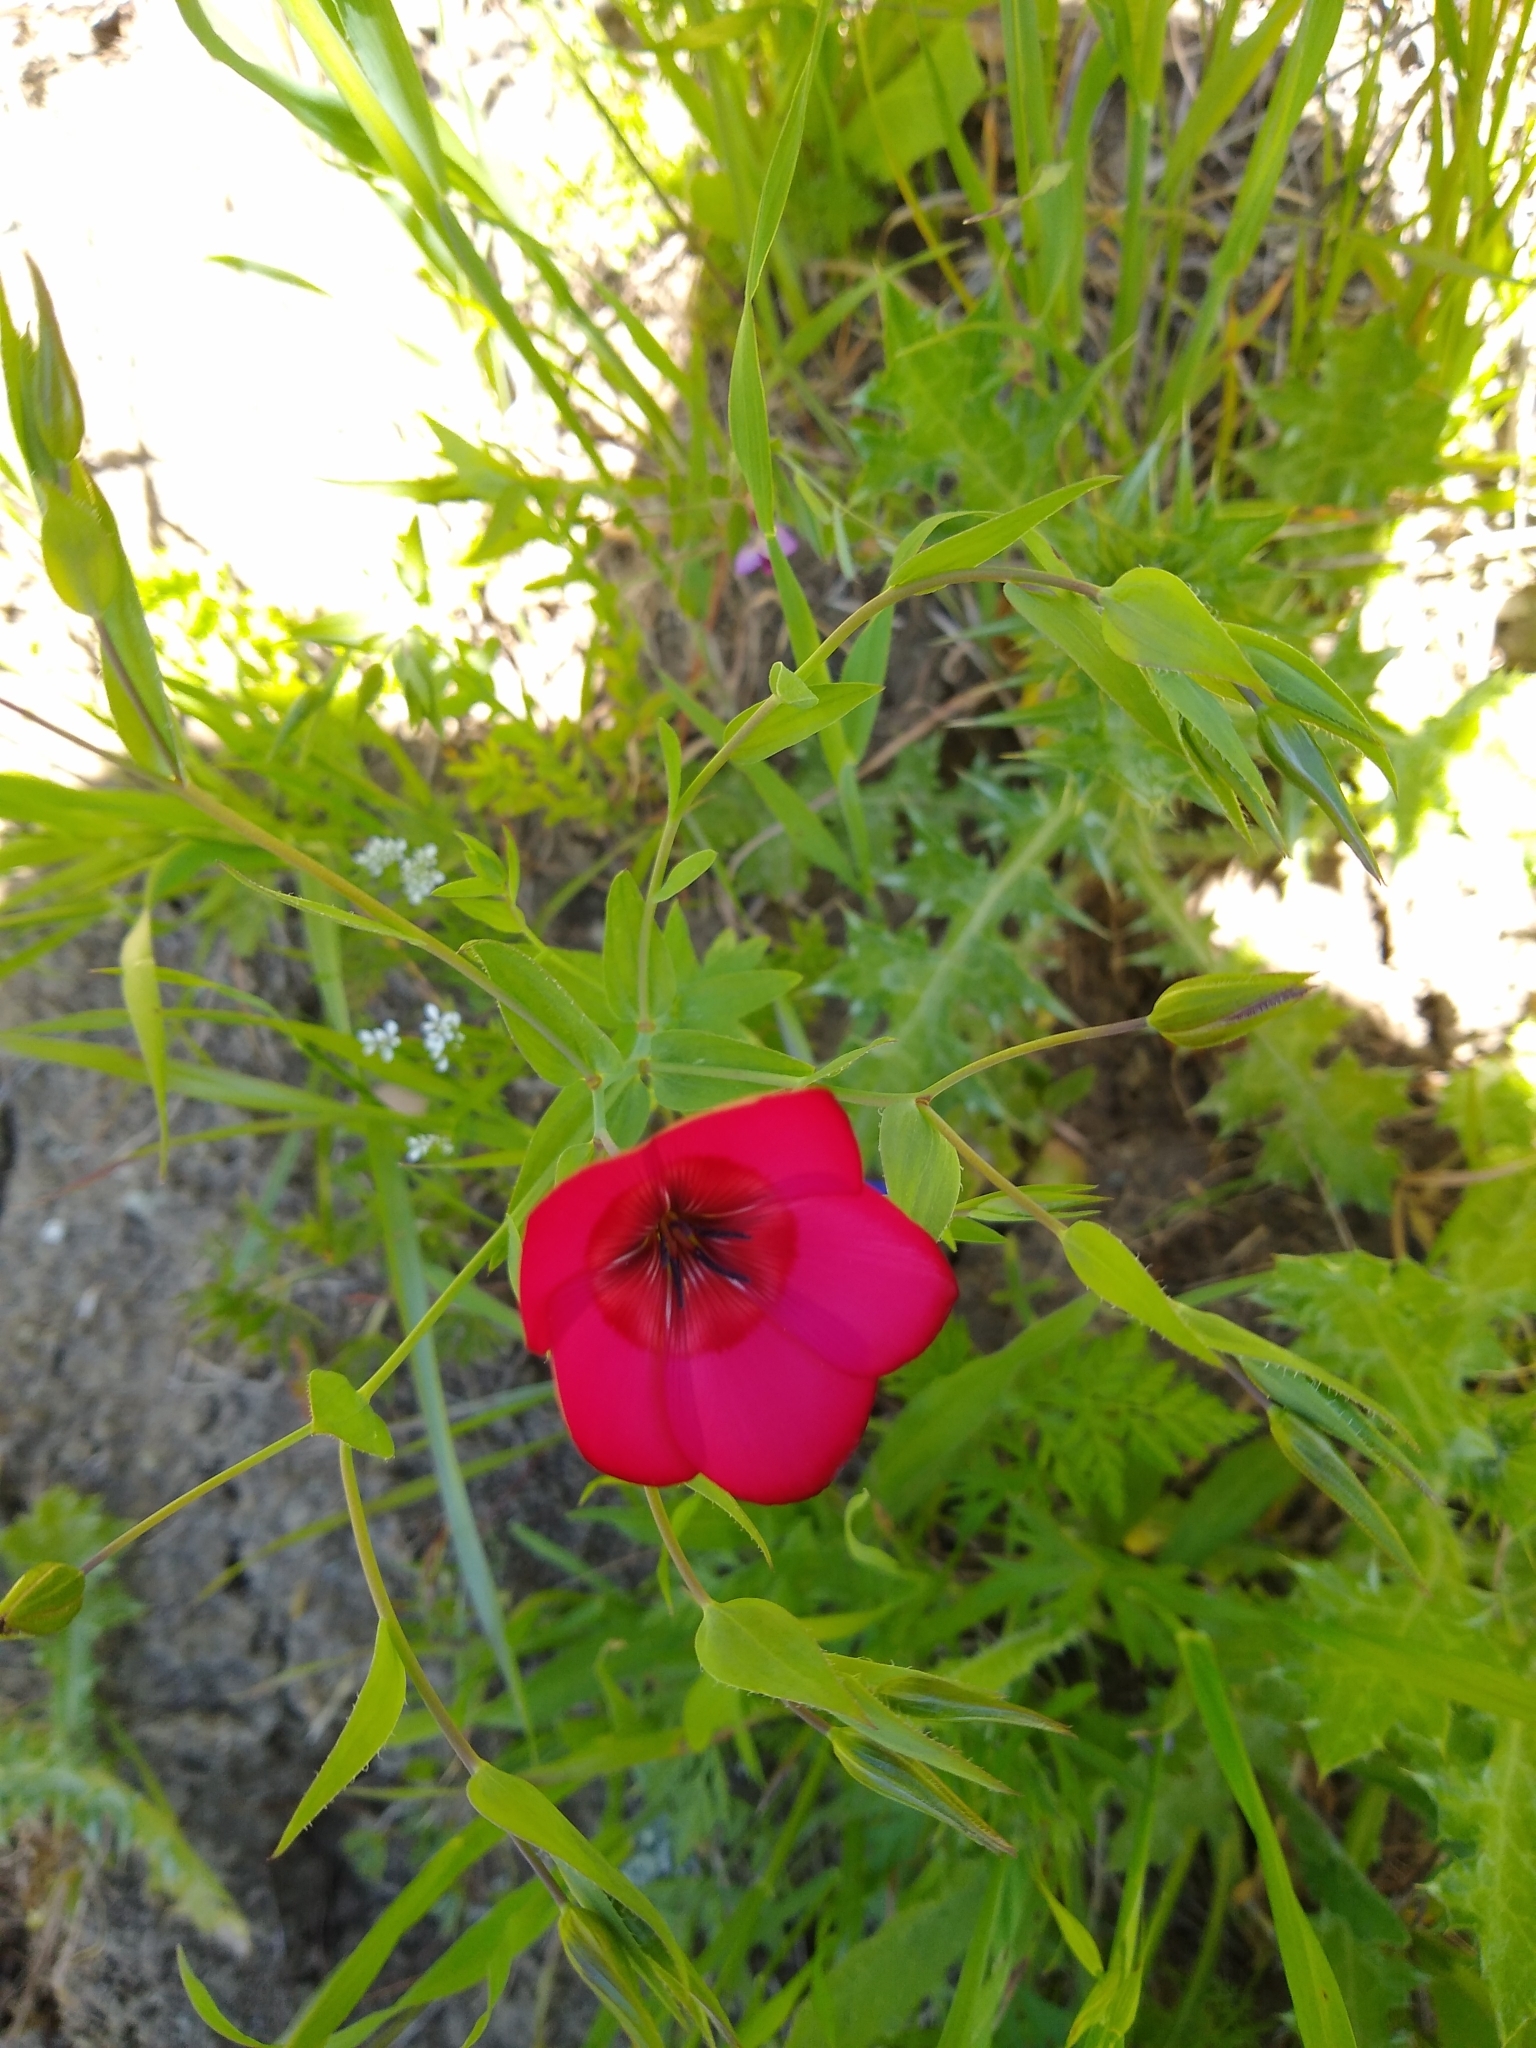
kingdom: Plantae
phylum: Tracheophyta
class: Magnoliopsida
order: Malpighiales
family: Linaceae
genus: Linum
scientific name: Linum grandiflorum
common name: Crimson flax
